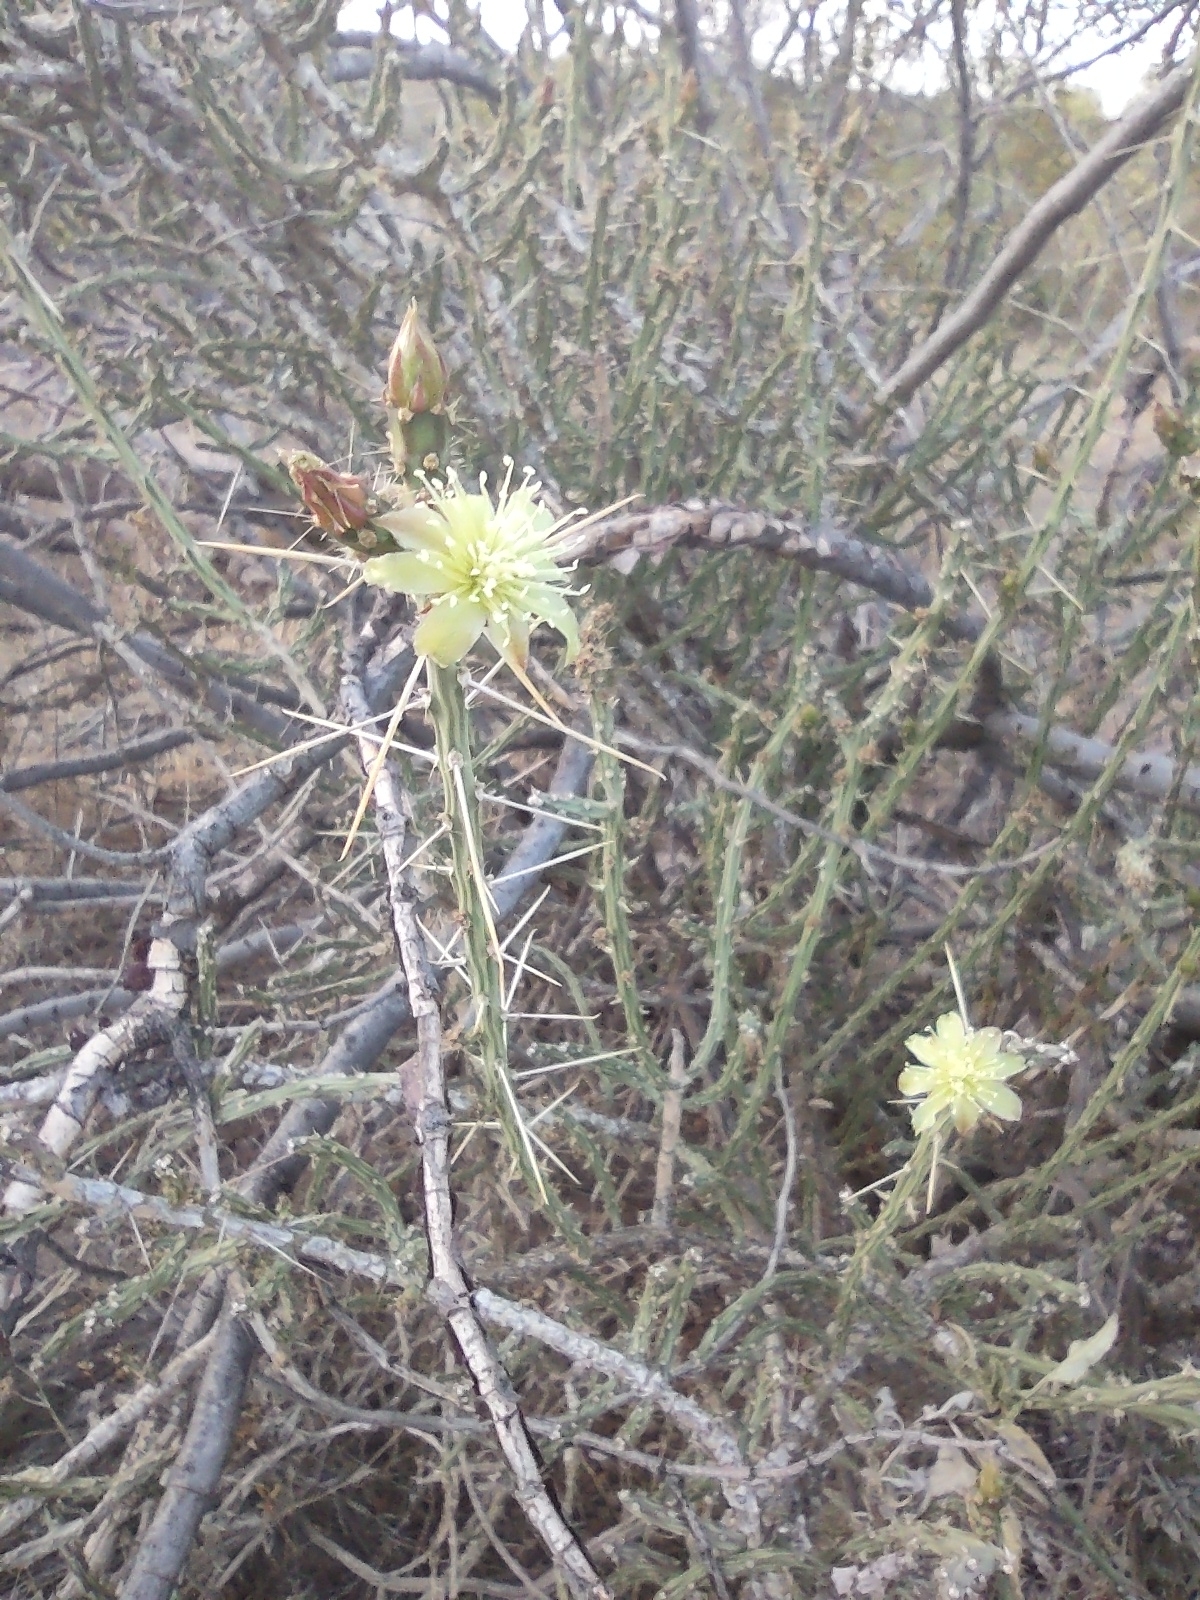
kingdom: Plantae
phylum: Tracheophyta
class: Magnoliopsida
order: Caryophyllales
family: Cactaceae
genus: Cylindropuntia
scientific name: Cylindropuntia leptocaulis
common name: Christmas cactus
